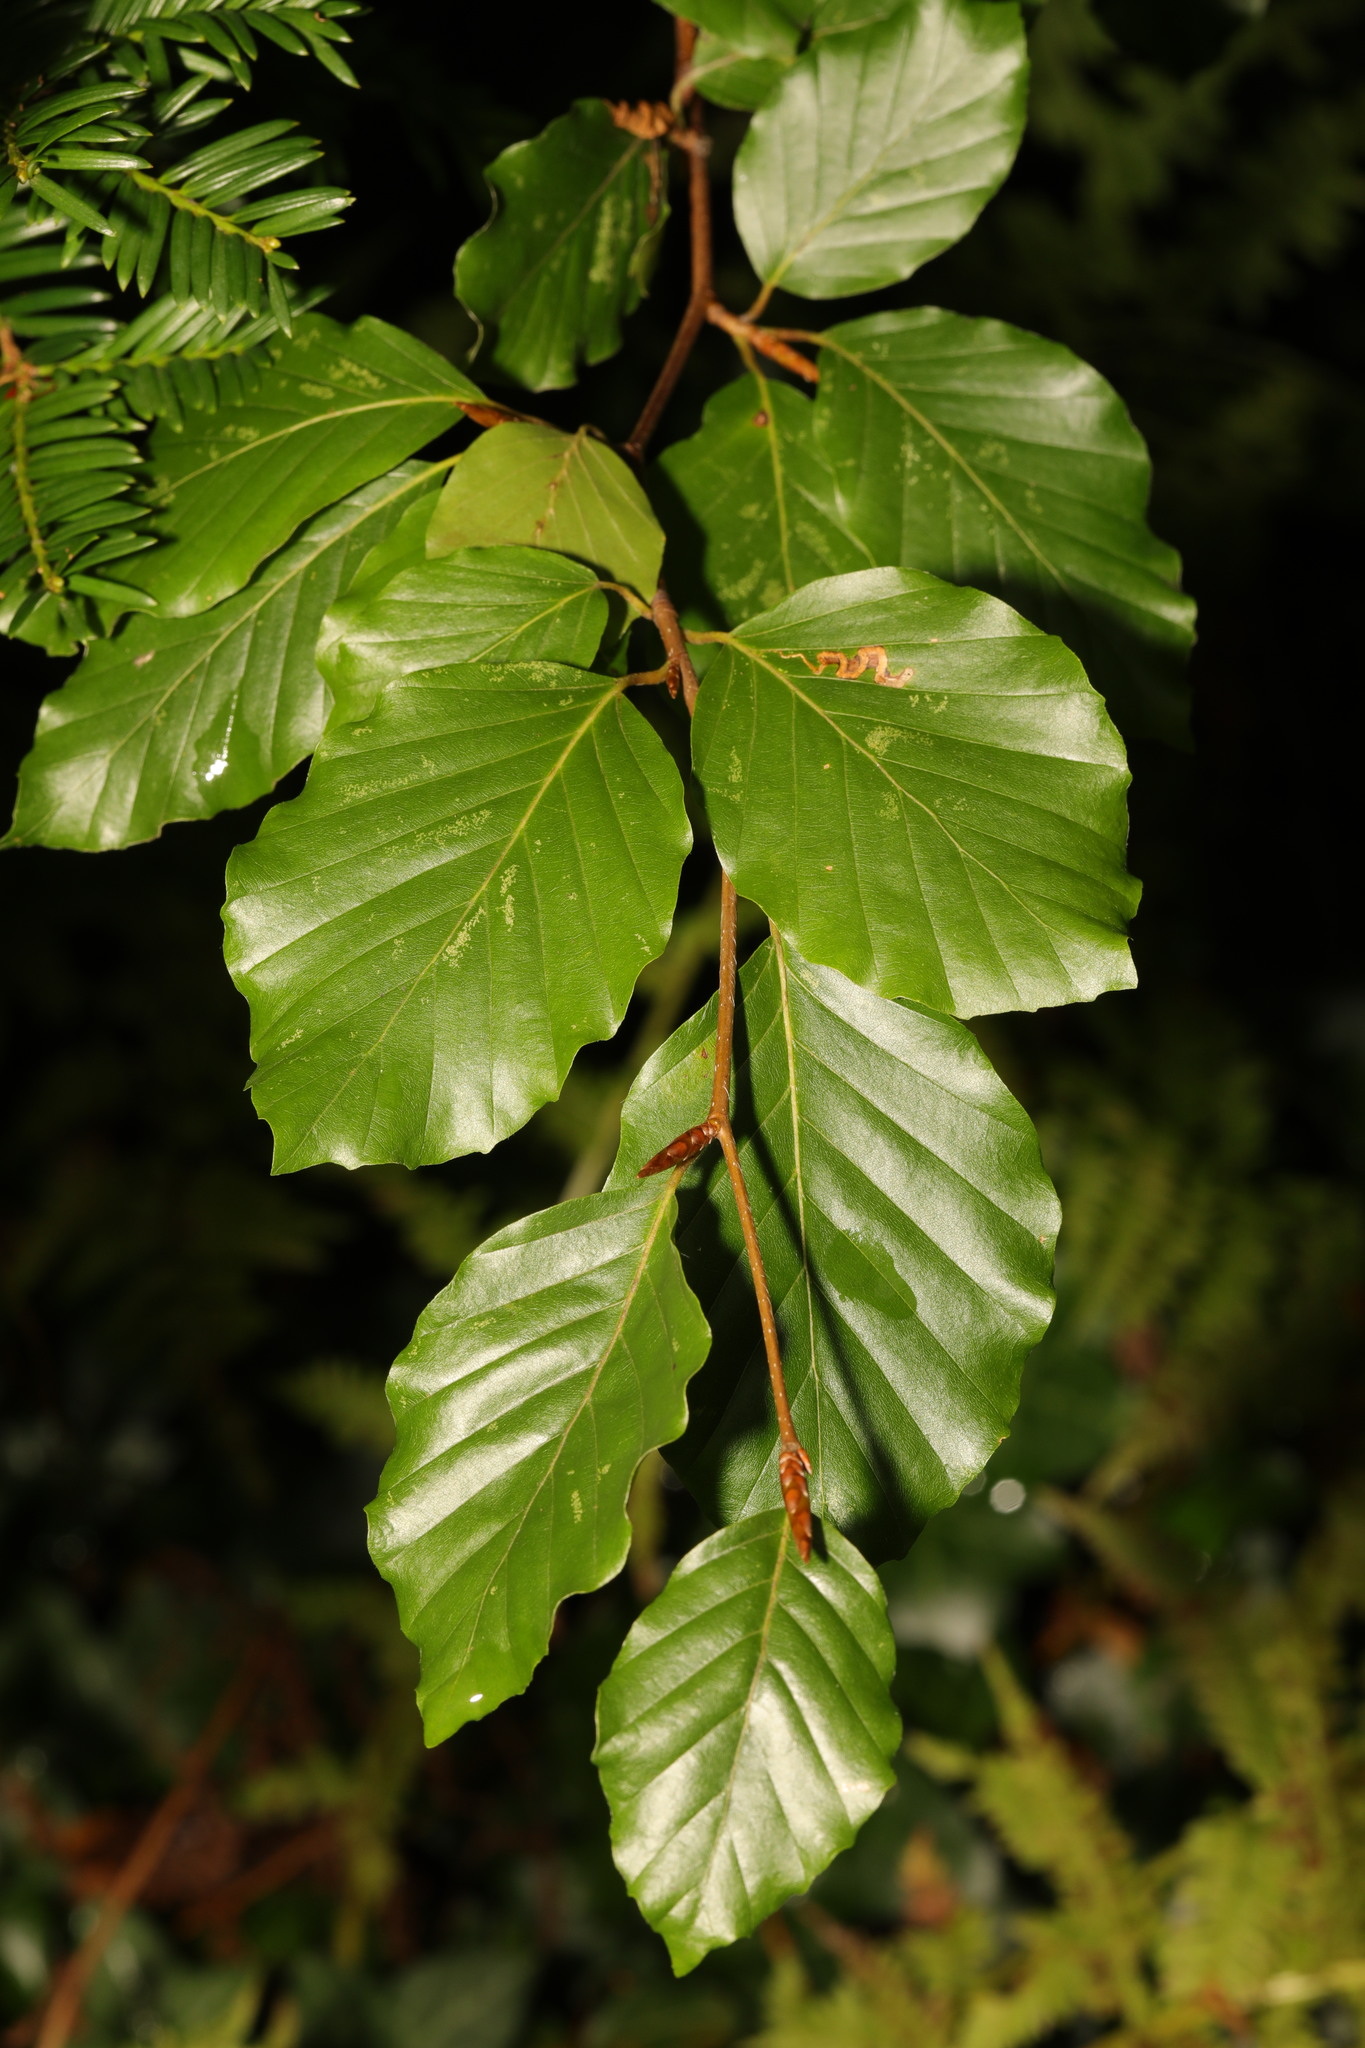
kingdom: Plantae
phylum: Tracheophyta
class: Magnoliopsida
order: Fagales
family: Fagaceae
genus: Fagus
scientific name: Fagus sylvatica
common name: Beech
